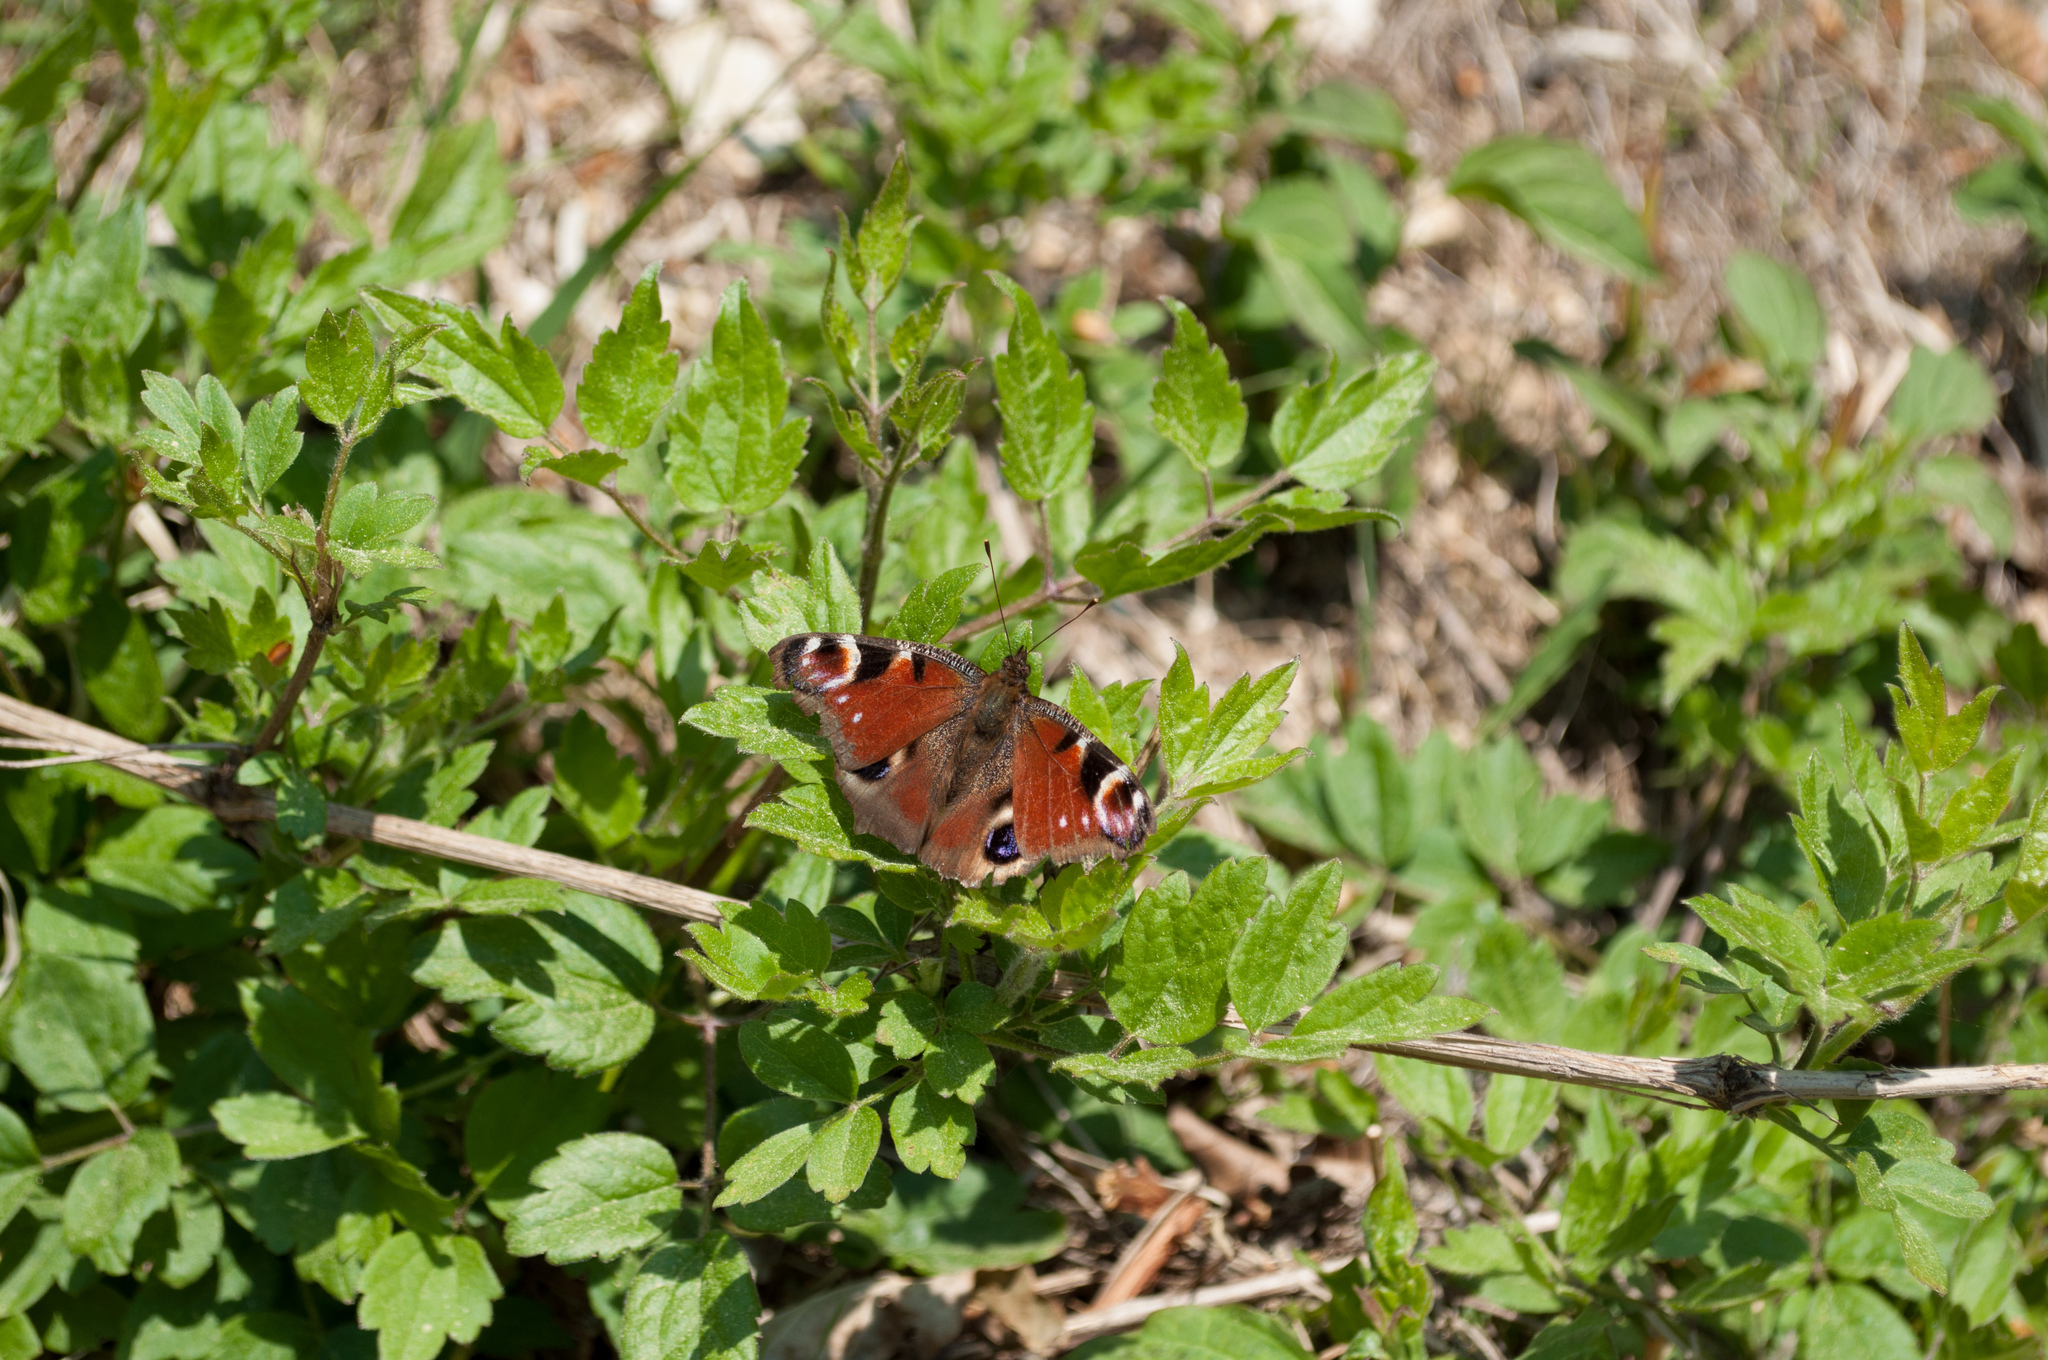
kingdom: Animalia
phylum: Arthropoda
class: Insecta
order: Lepidoptera
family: Nymphalidae
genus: Aglais
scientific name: Aglais io
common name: Peacock
